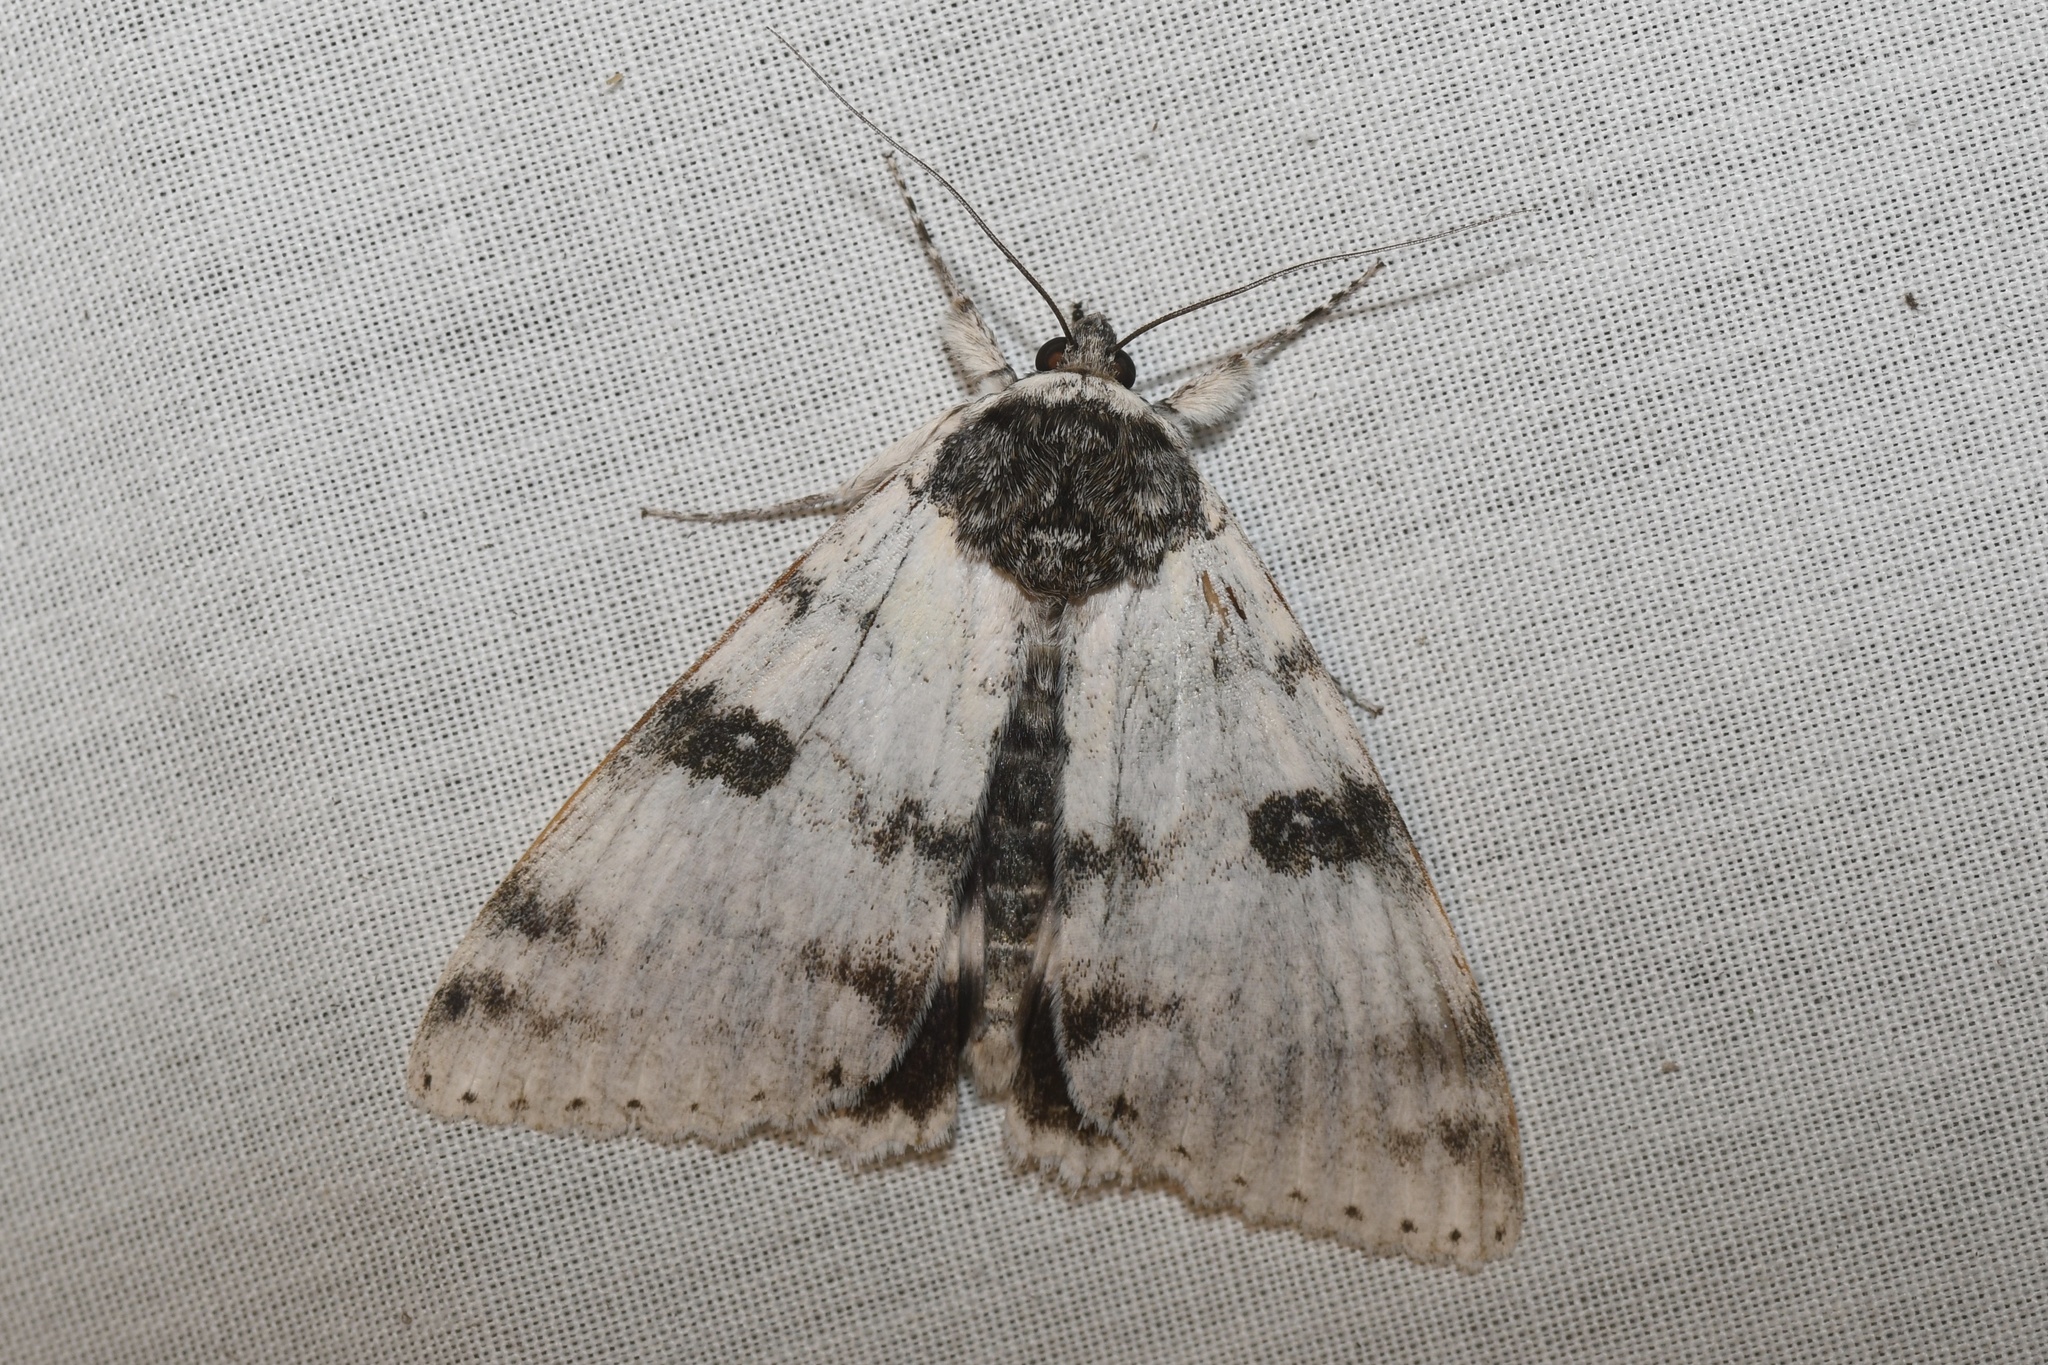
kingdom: Animalia
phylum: Arthropoda
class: Insecta
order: Lepidoptera
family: Erebidae
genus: Catocala
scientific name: Catocala relicta
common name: White underwing
